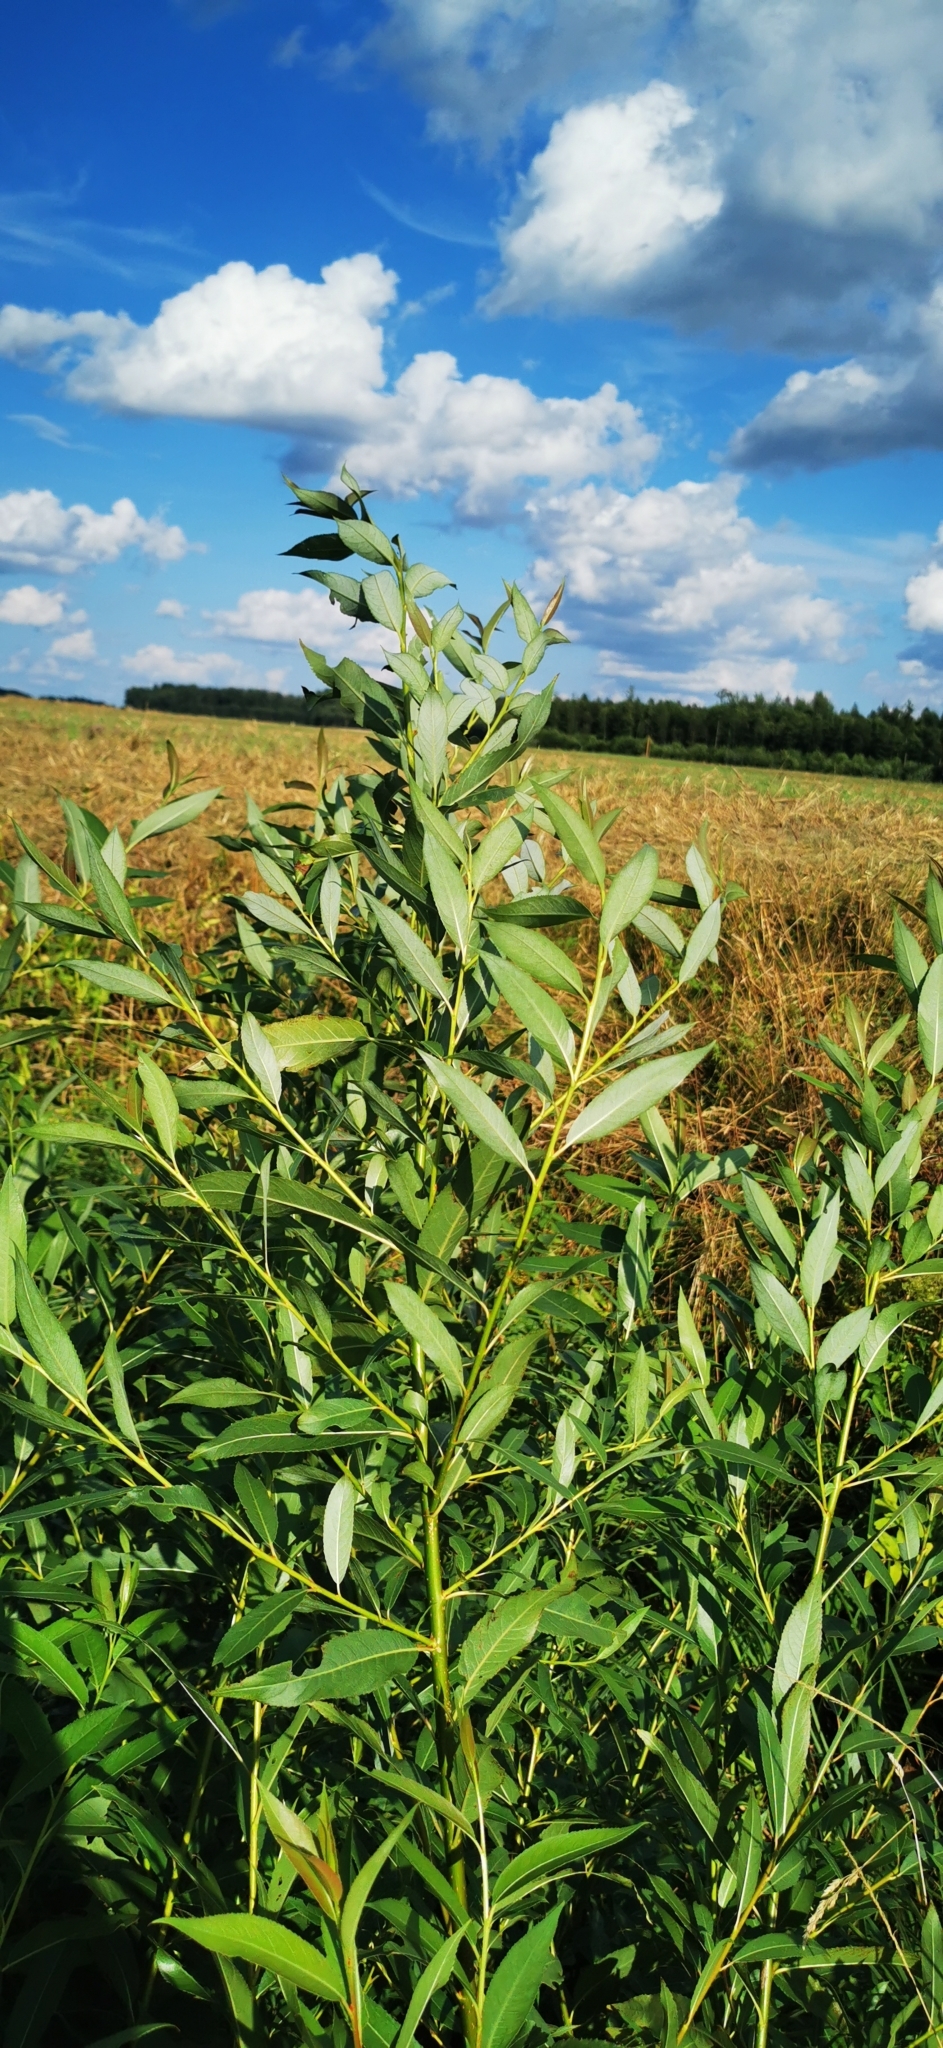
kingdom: Plantae
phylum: Tracheophyta
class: Magnoliopsida
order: Malpighiales
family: Salicaceae
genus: Salix
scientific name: Salix fragilis
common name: Crack willow
